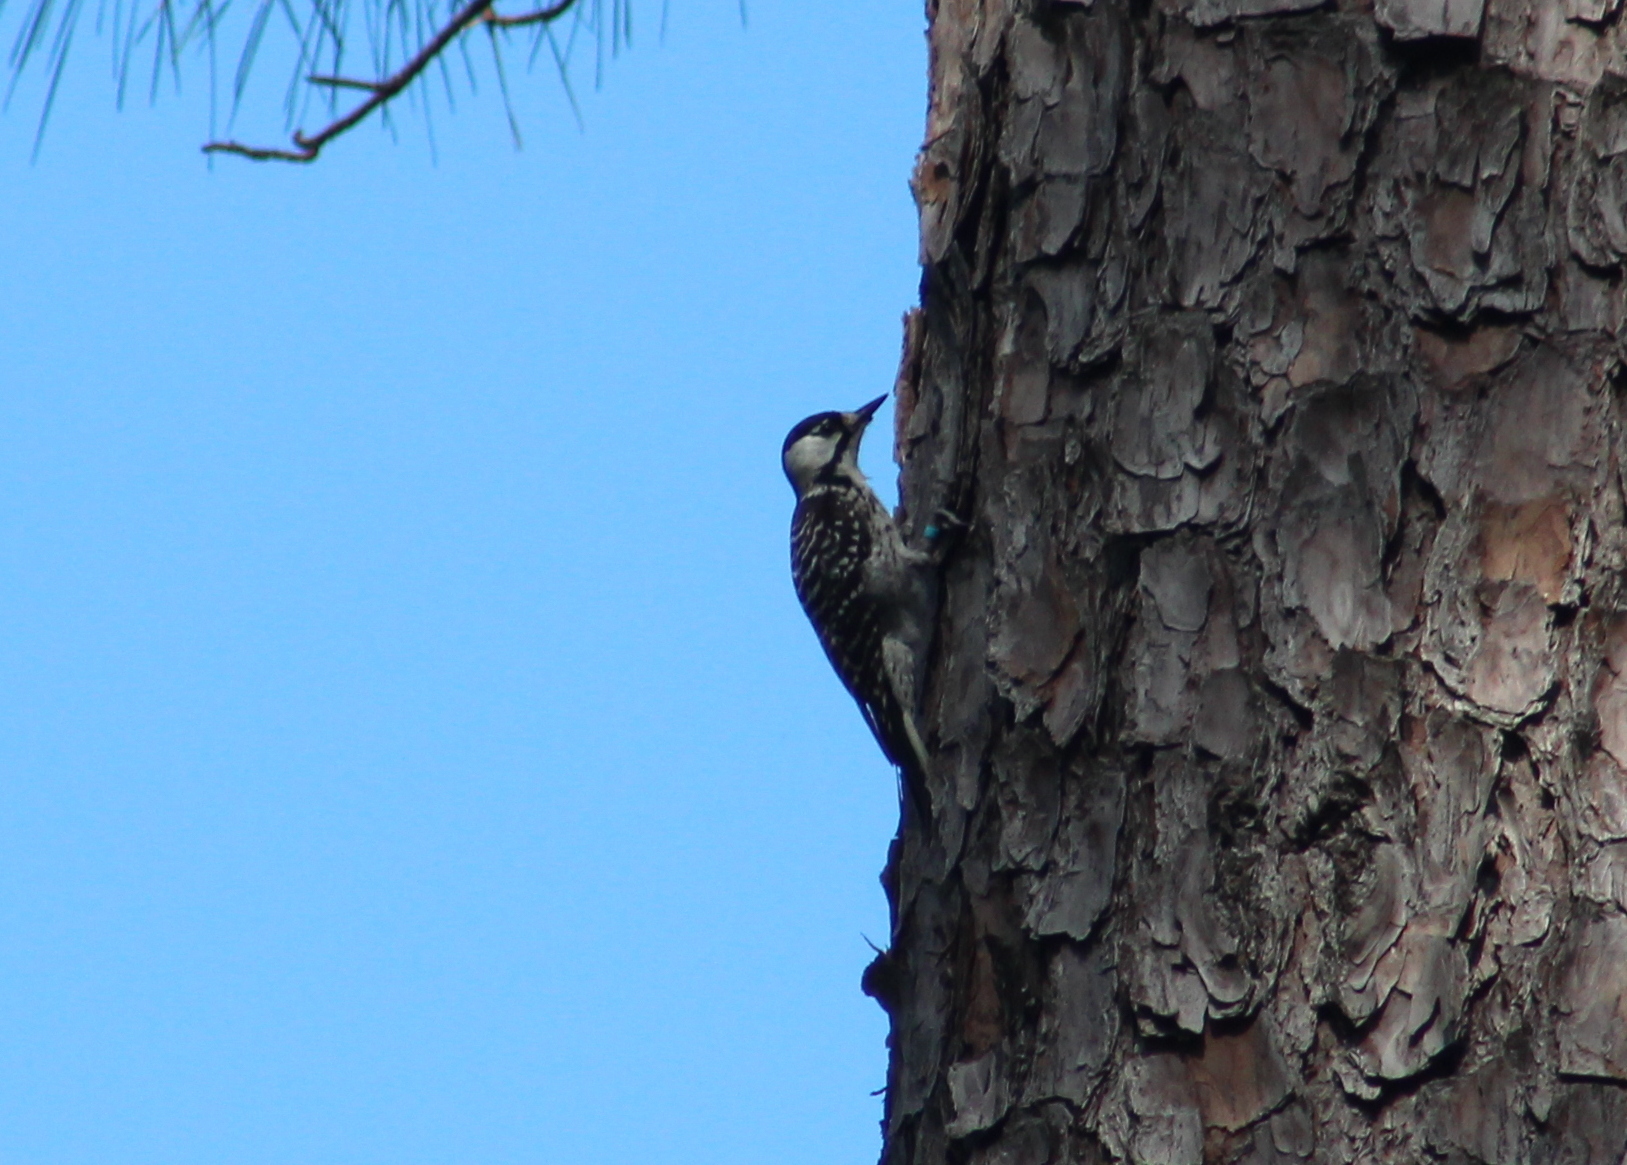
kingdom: Animalia
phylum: Chordata
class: Aves
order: Piciformes
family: Picidae
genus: Leuconotopicus
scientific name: Leuconotopicus borealis
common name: Red-cockaded woodpecker
